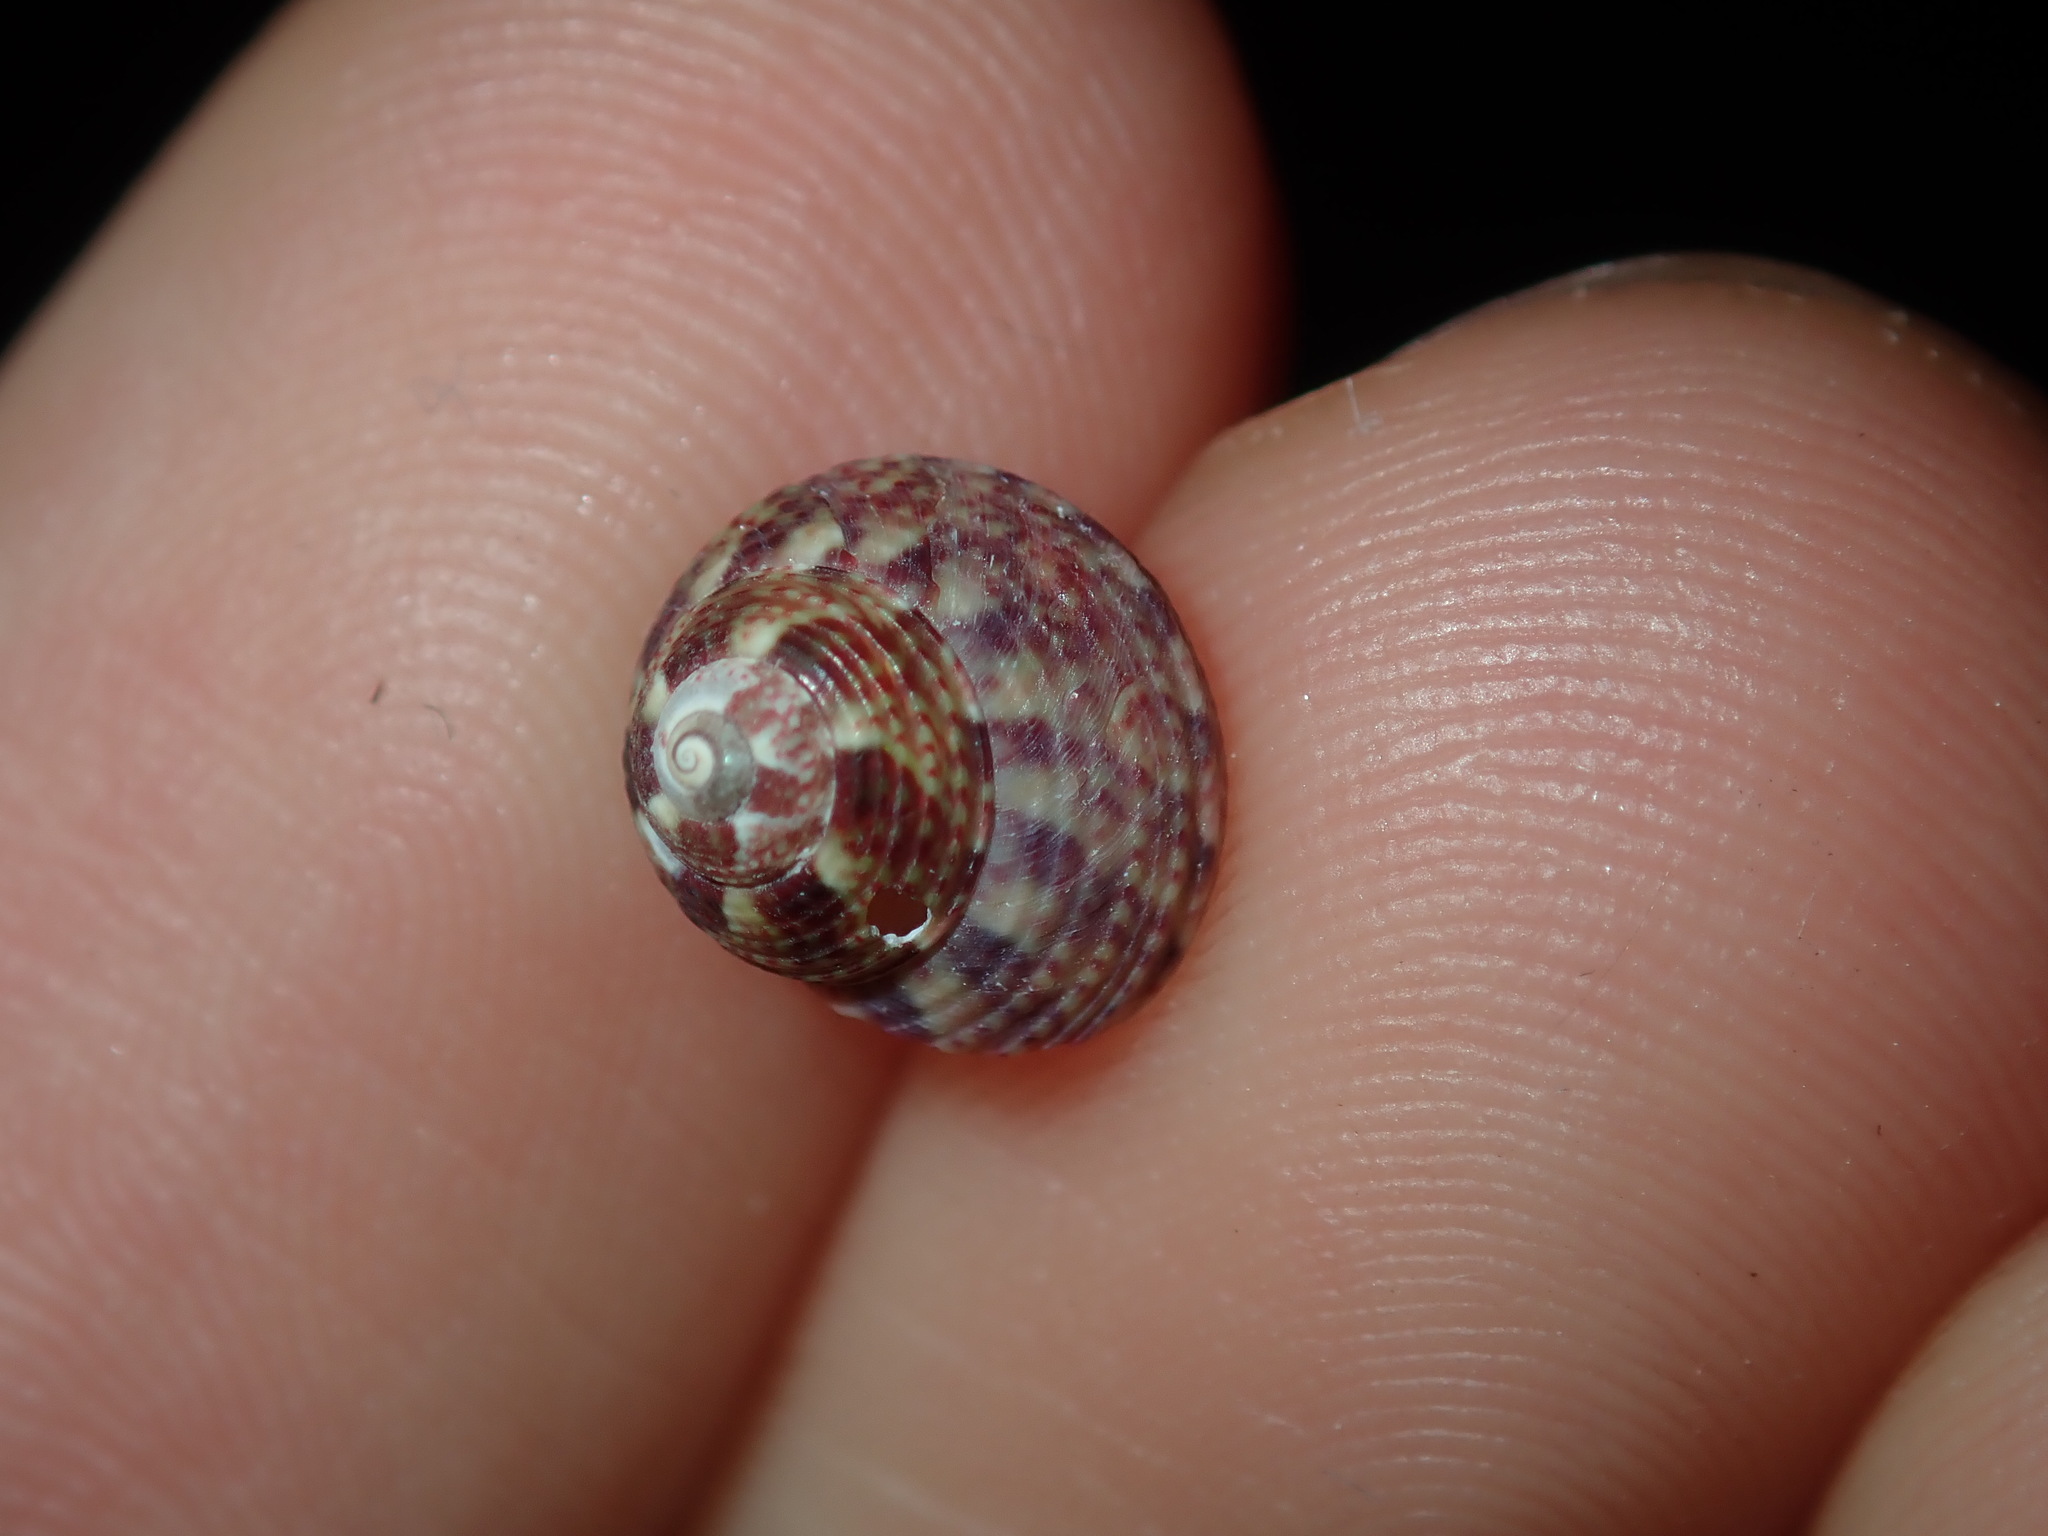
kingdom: Animalia
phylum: Mollusca
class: Gastropoda
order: Trochida
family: Trochidae
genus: Cantharidella
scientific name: Cantharidella picturata
